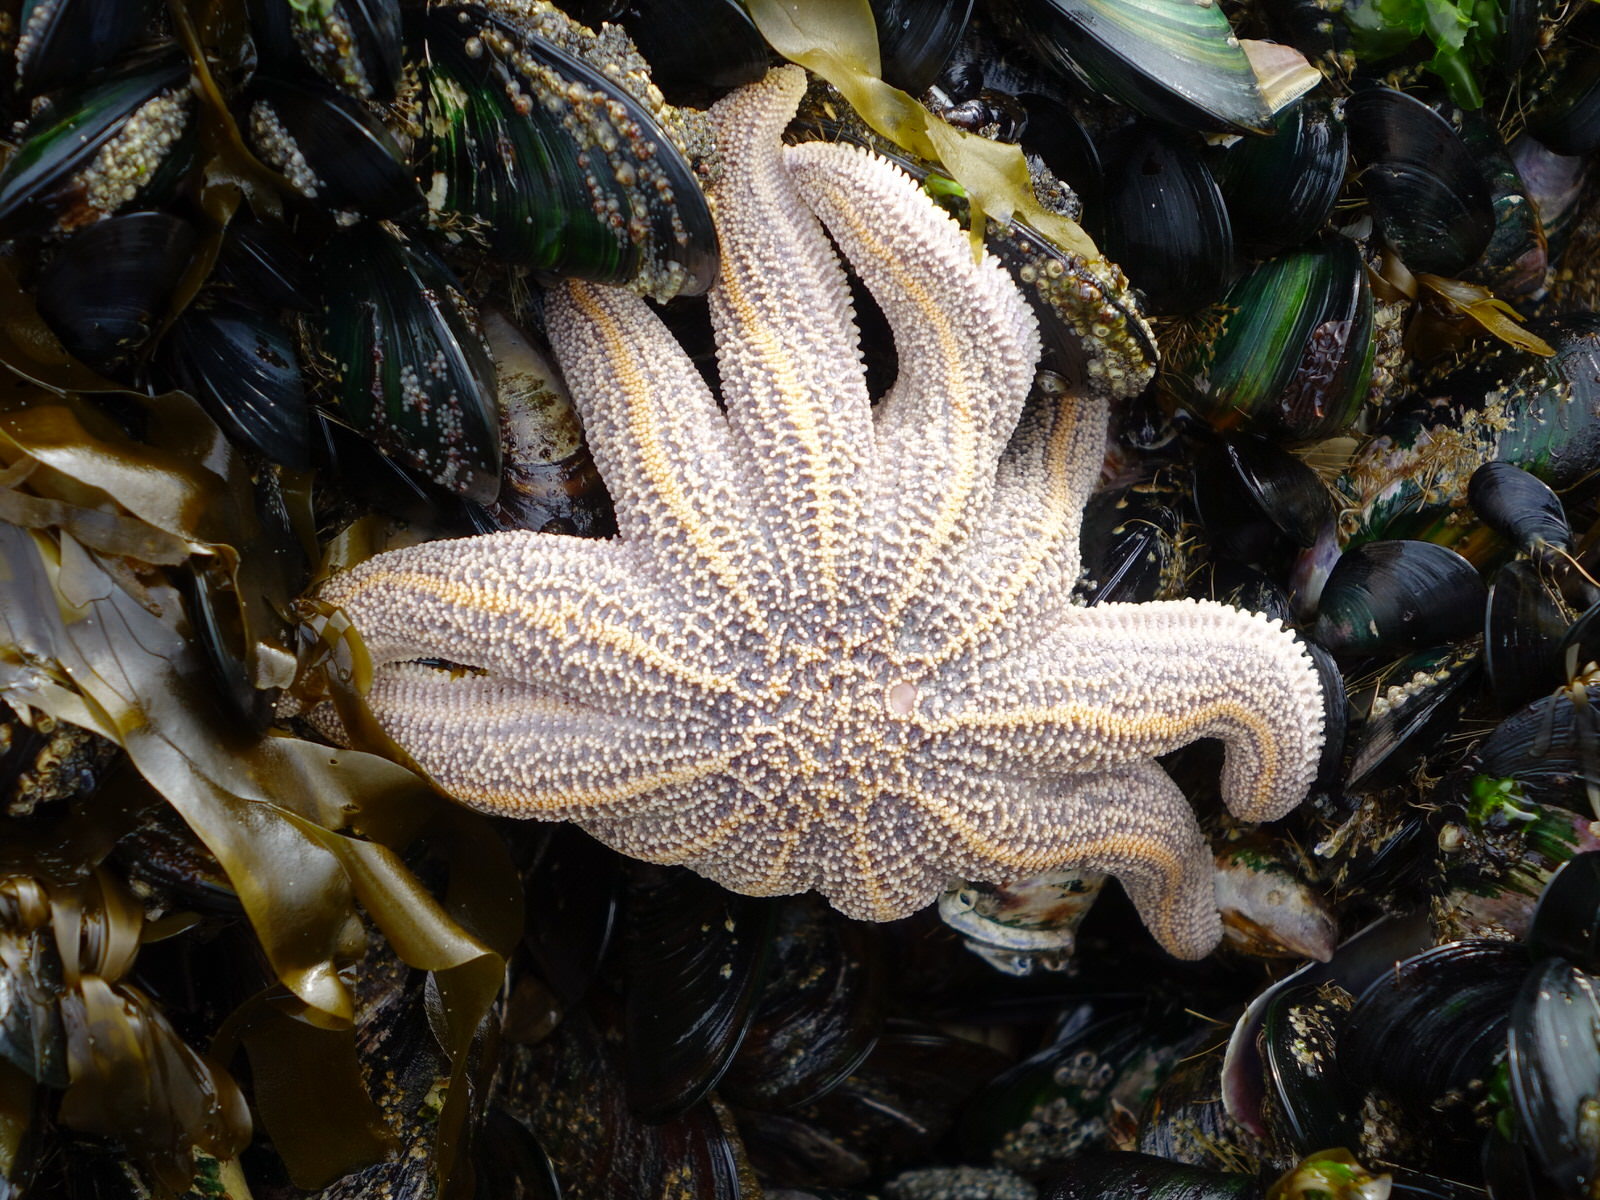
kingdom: Animalia
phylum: Echinodermata
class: Asteroidea
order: Forcipulatida
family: Stichasteridae
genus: Stichaster
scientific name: Stichaster australis
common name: Reef starfish
